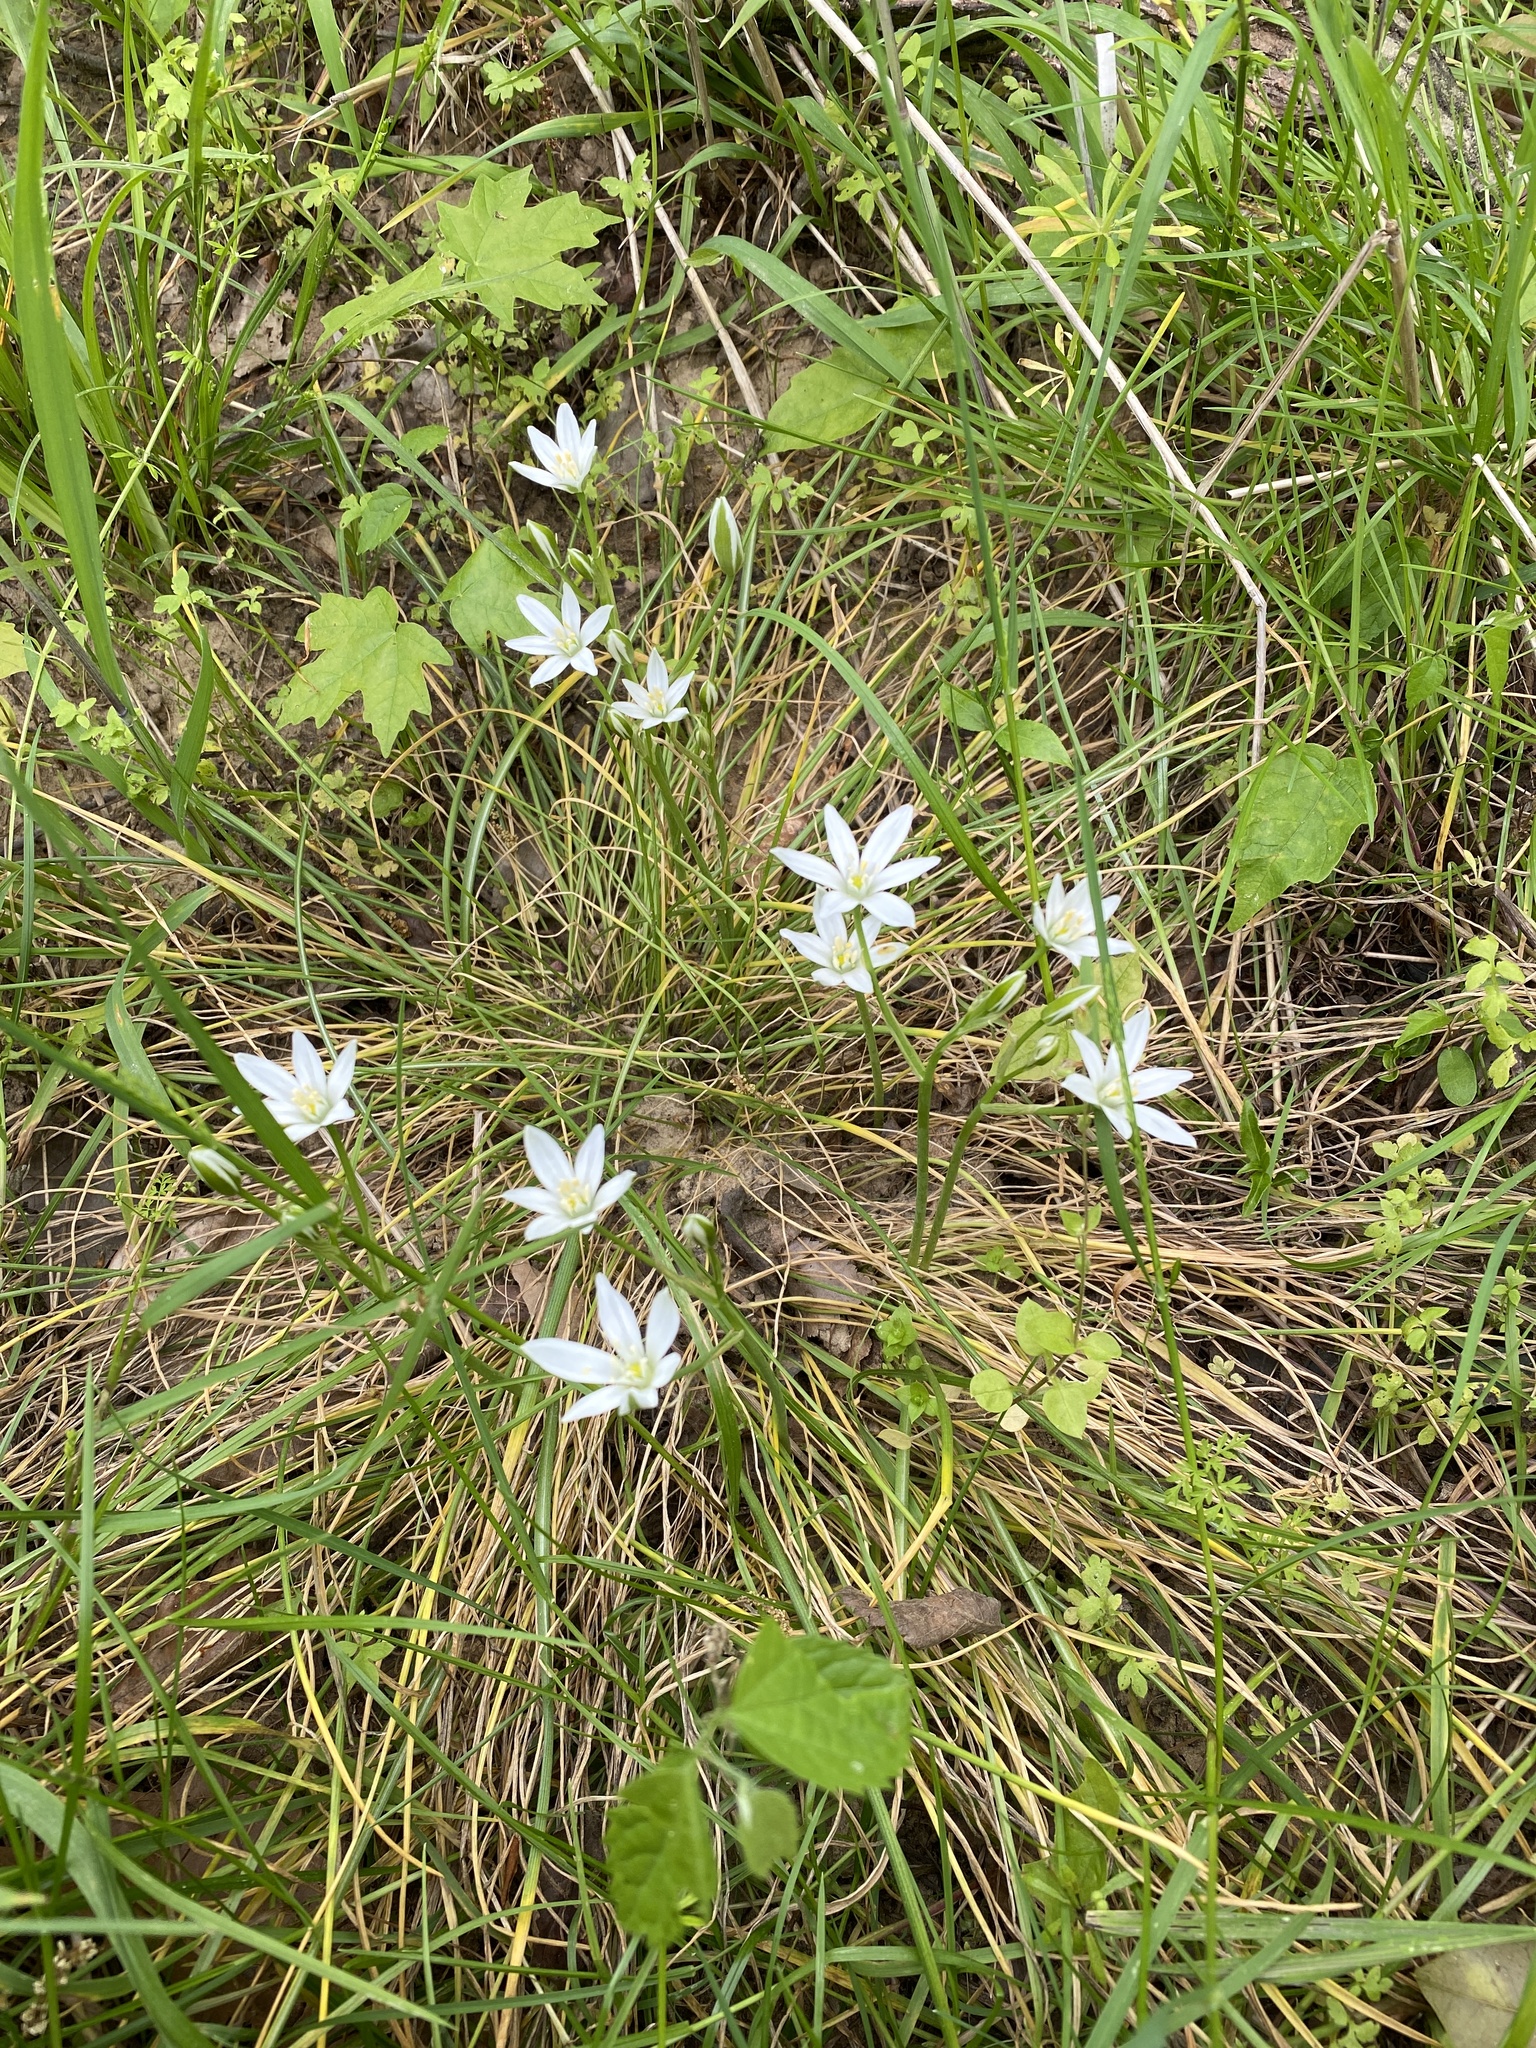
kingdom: Plantae
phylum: Tracheophyta
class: Liliopsida
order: Asparagales
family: Asparagaceae
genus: Ornithogalum
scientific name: Ornithogalum umbellatum
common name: Garden star-of-bethlehem
